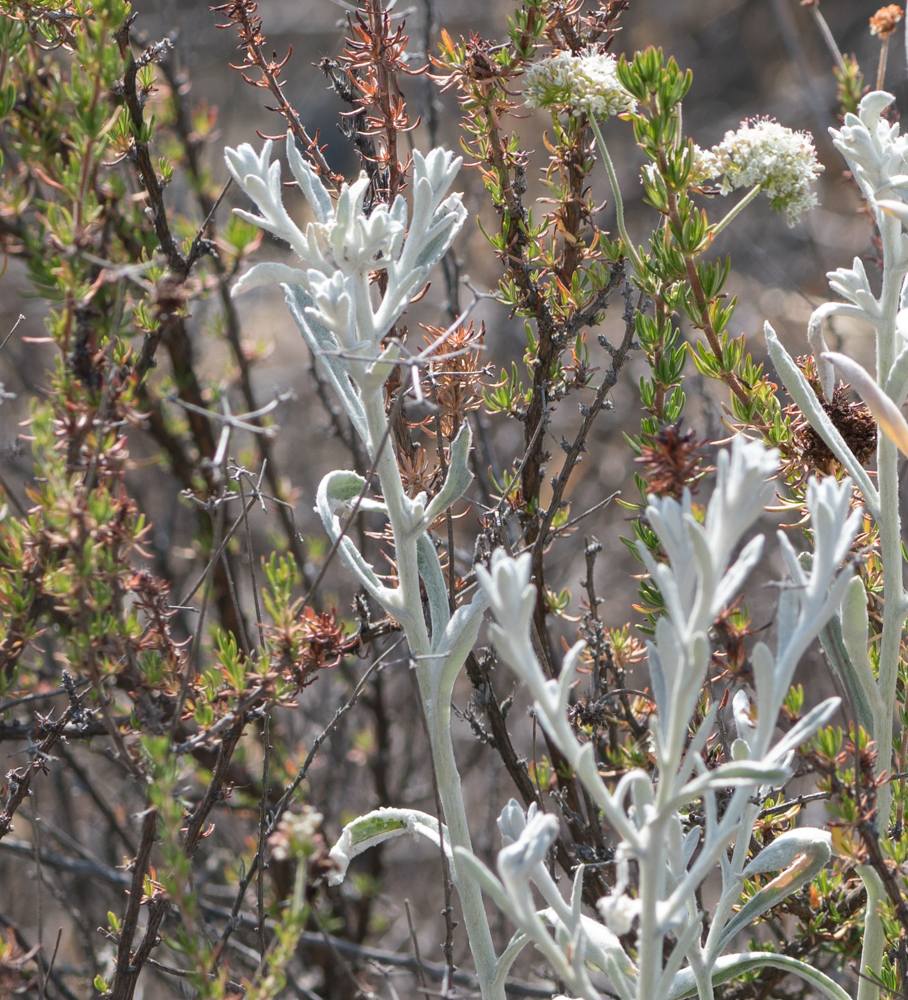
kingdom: Plantae
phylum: Tracheophyta
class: Magnoliopsida
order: Asterales
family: Asteraceae
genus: Pseudognaphalium
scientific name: Pseudognaphalium microcephalum
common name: San diego rabbit-tobacco
